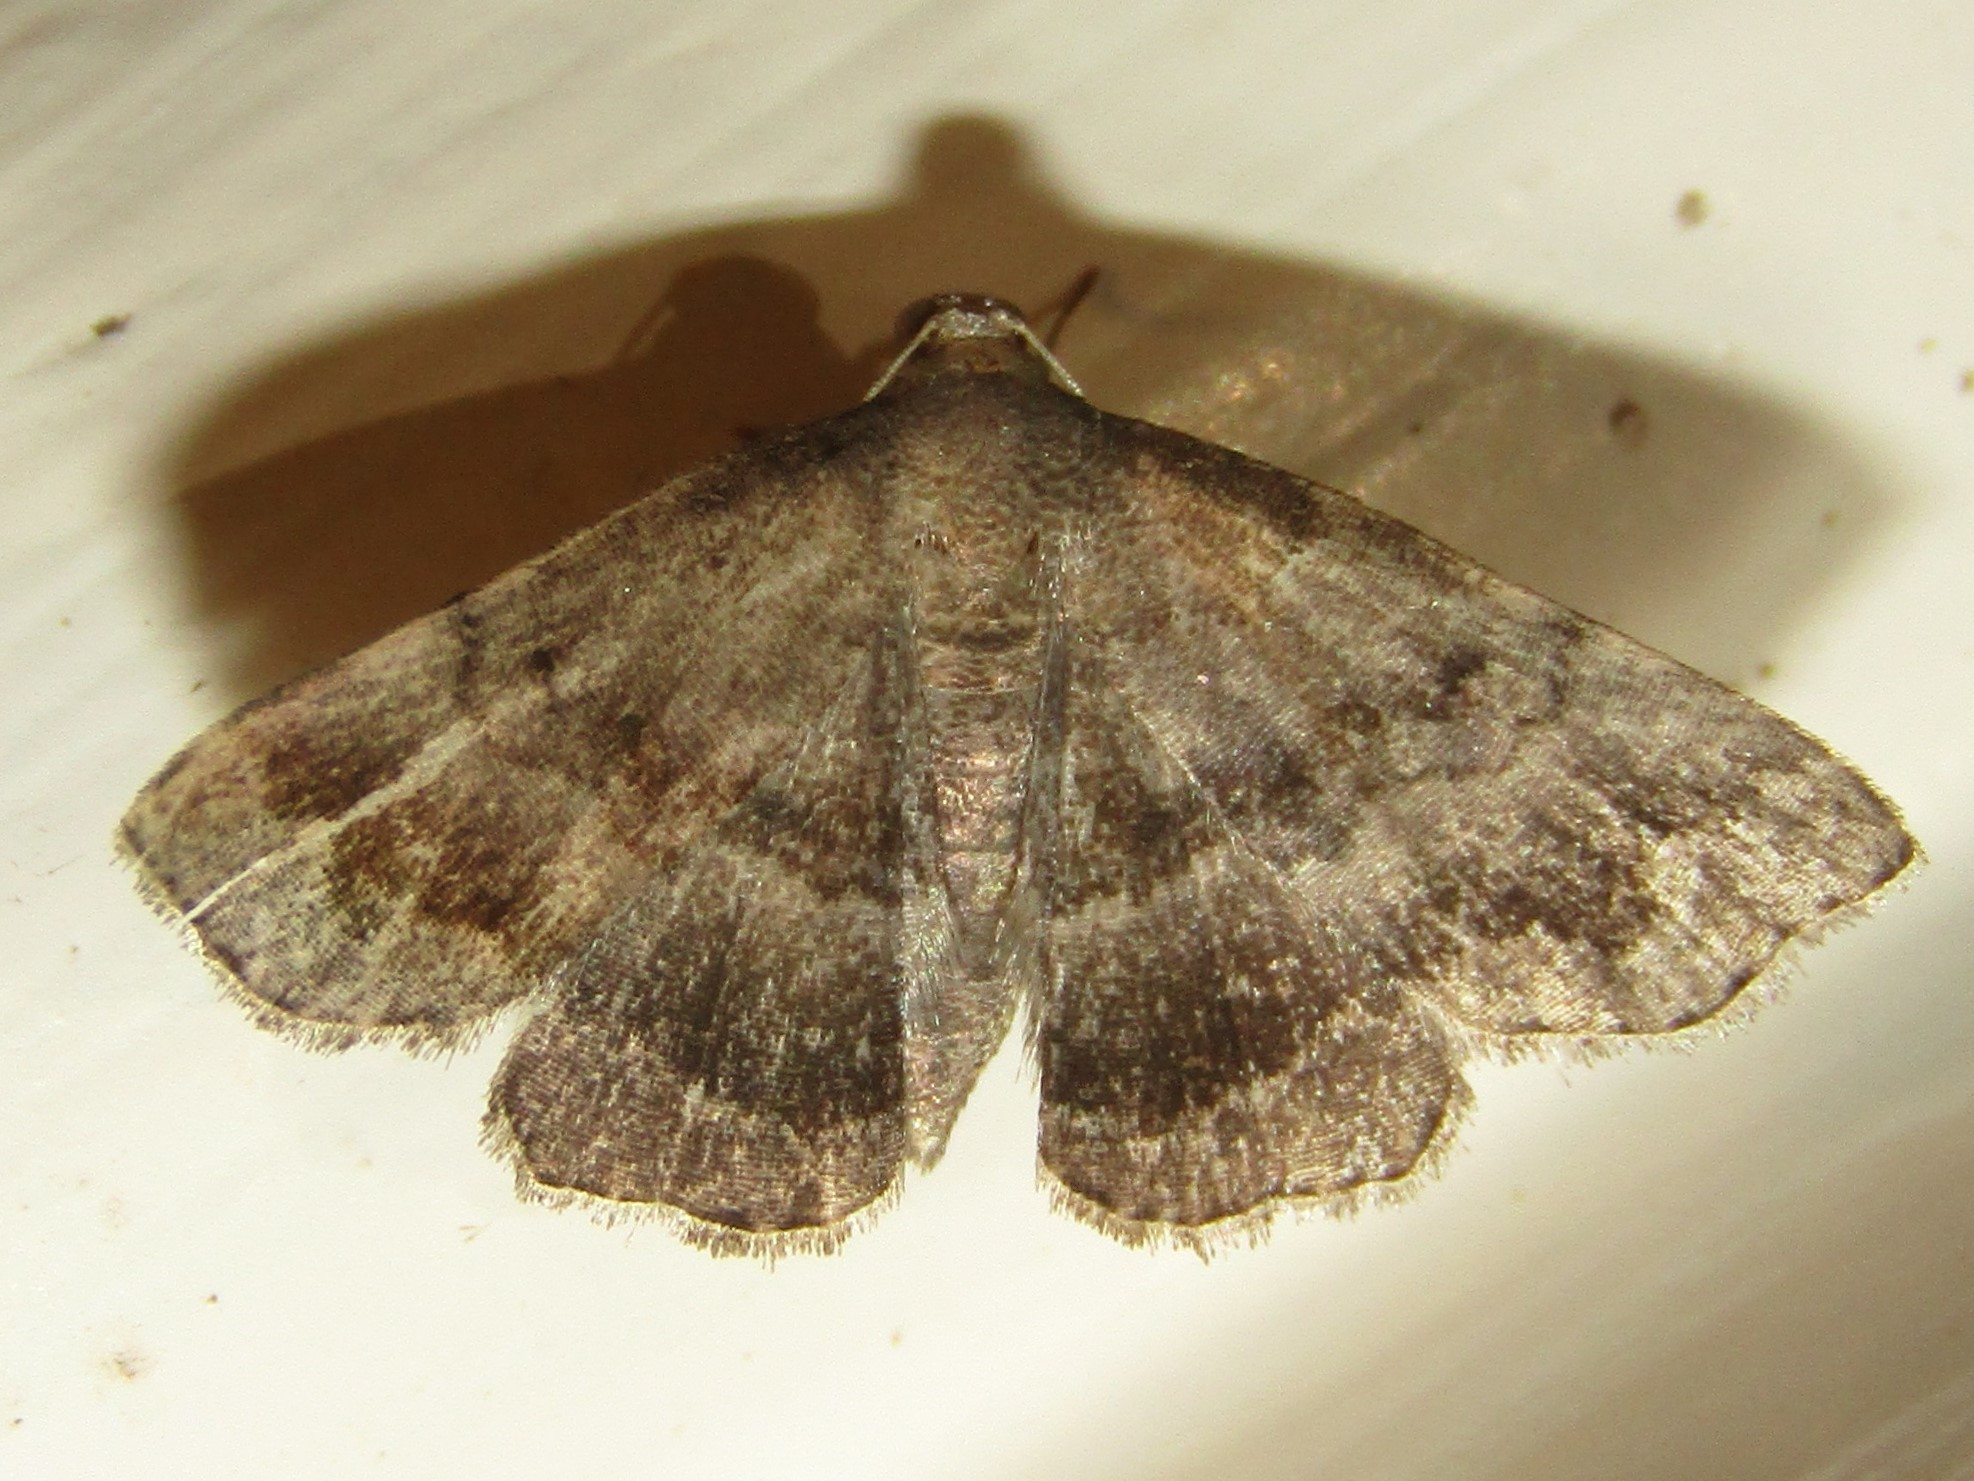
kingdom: Animalia
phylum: Arthropoda
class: Insecta
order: Lepidoptera
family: Erebidae
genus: Phalaenostola
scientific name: Phalaenostola larentioides
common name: Black-banded owlet
